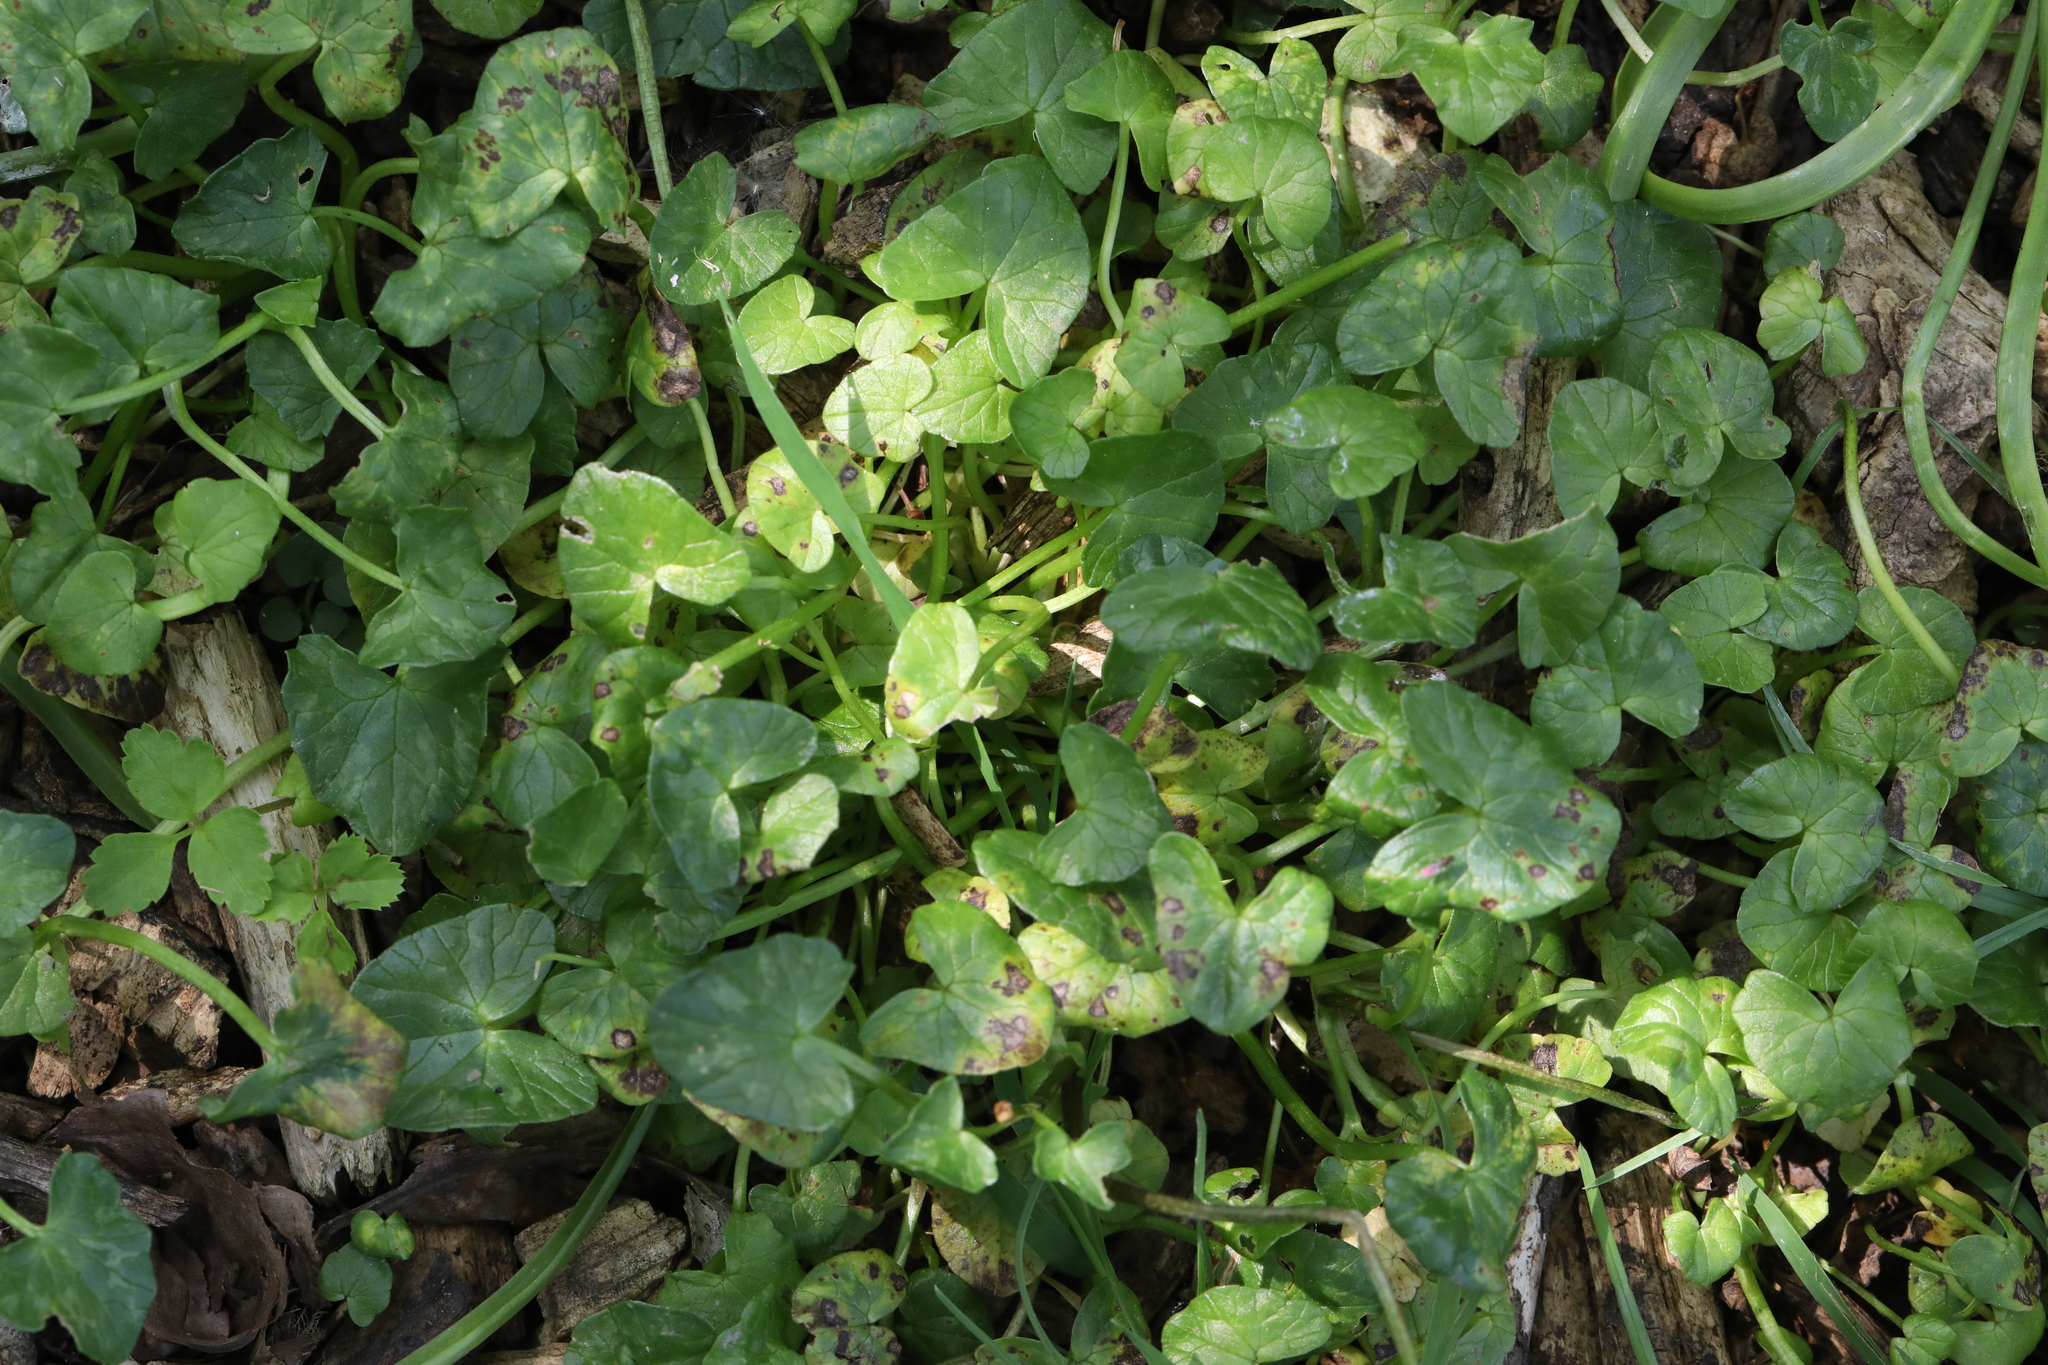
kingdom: Plantae
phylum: Tracheophyta
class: Magnoliopsida
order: Ranunculales
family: Ranunculaceae
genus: Ficaria
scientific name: Ficaria verna
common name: Lesser celandine
